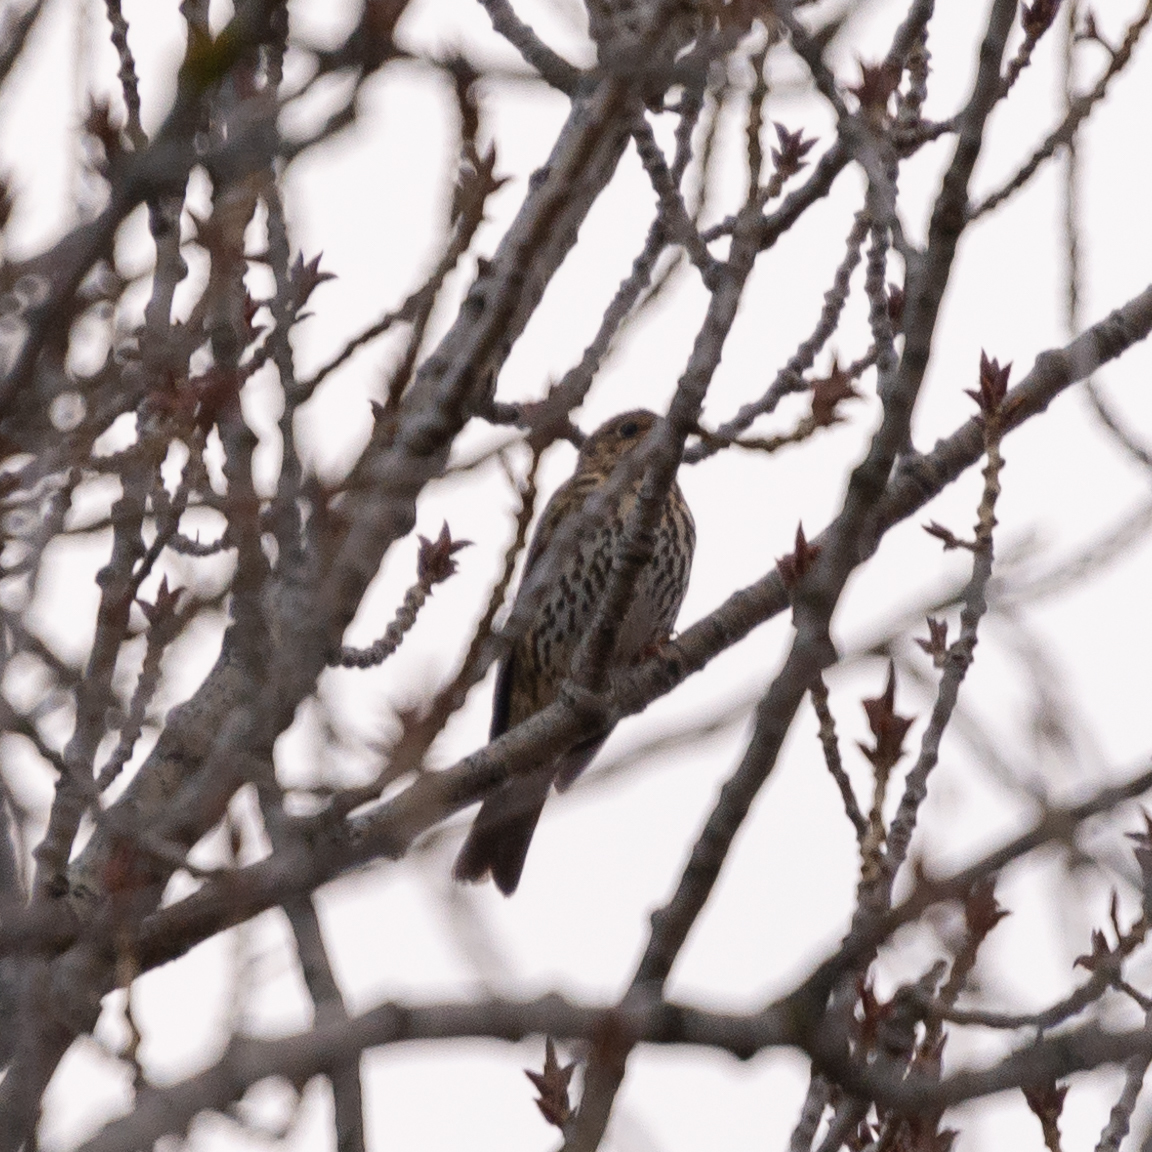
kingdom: Animalia
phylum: Chordata
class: Aves
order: Passeriformes
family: Turdidae
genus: Turdus
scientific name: Turdus philomelos
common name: Song thrush
